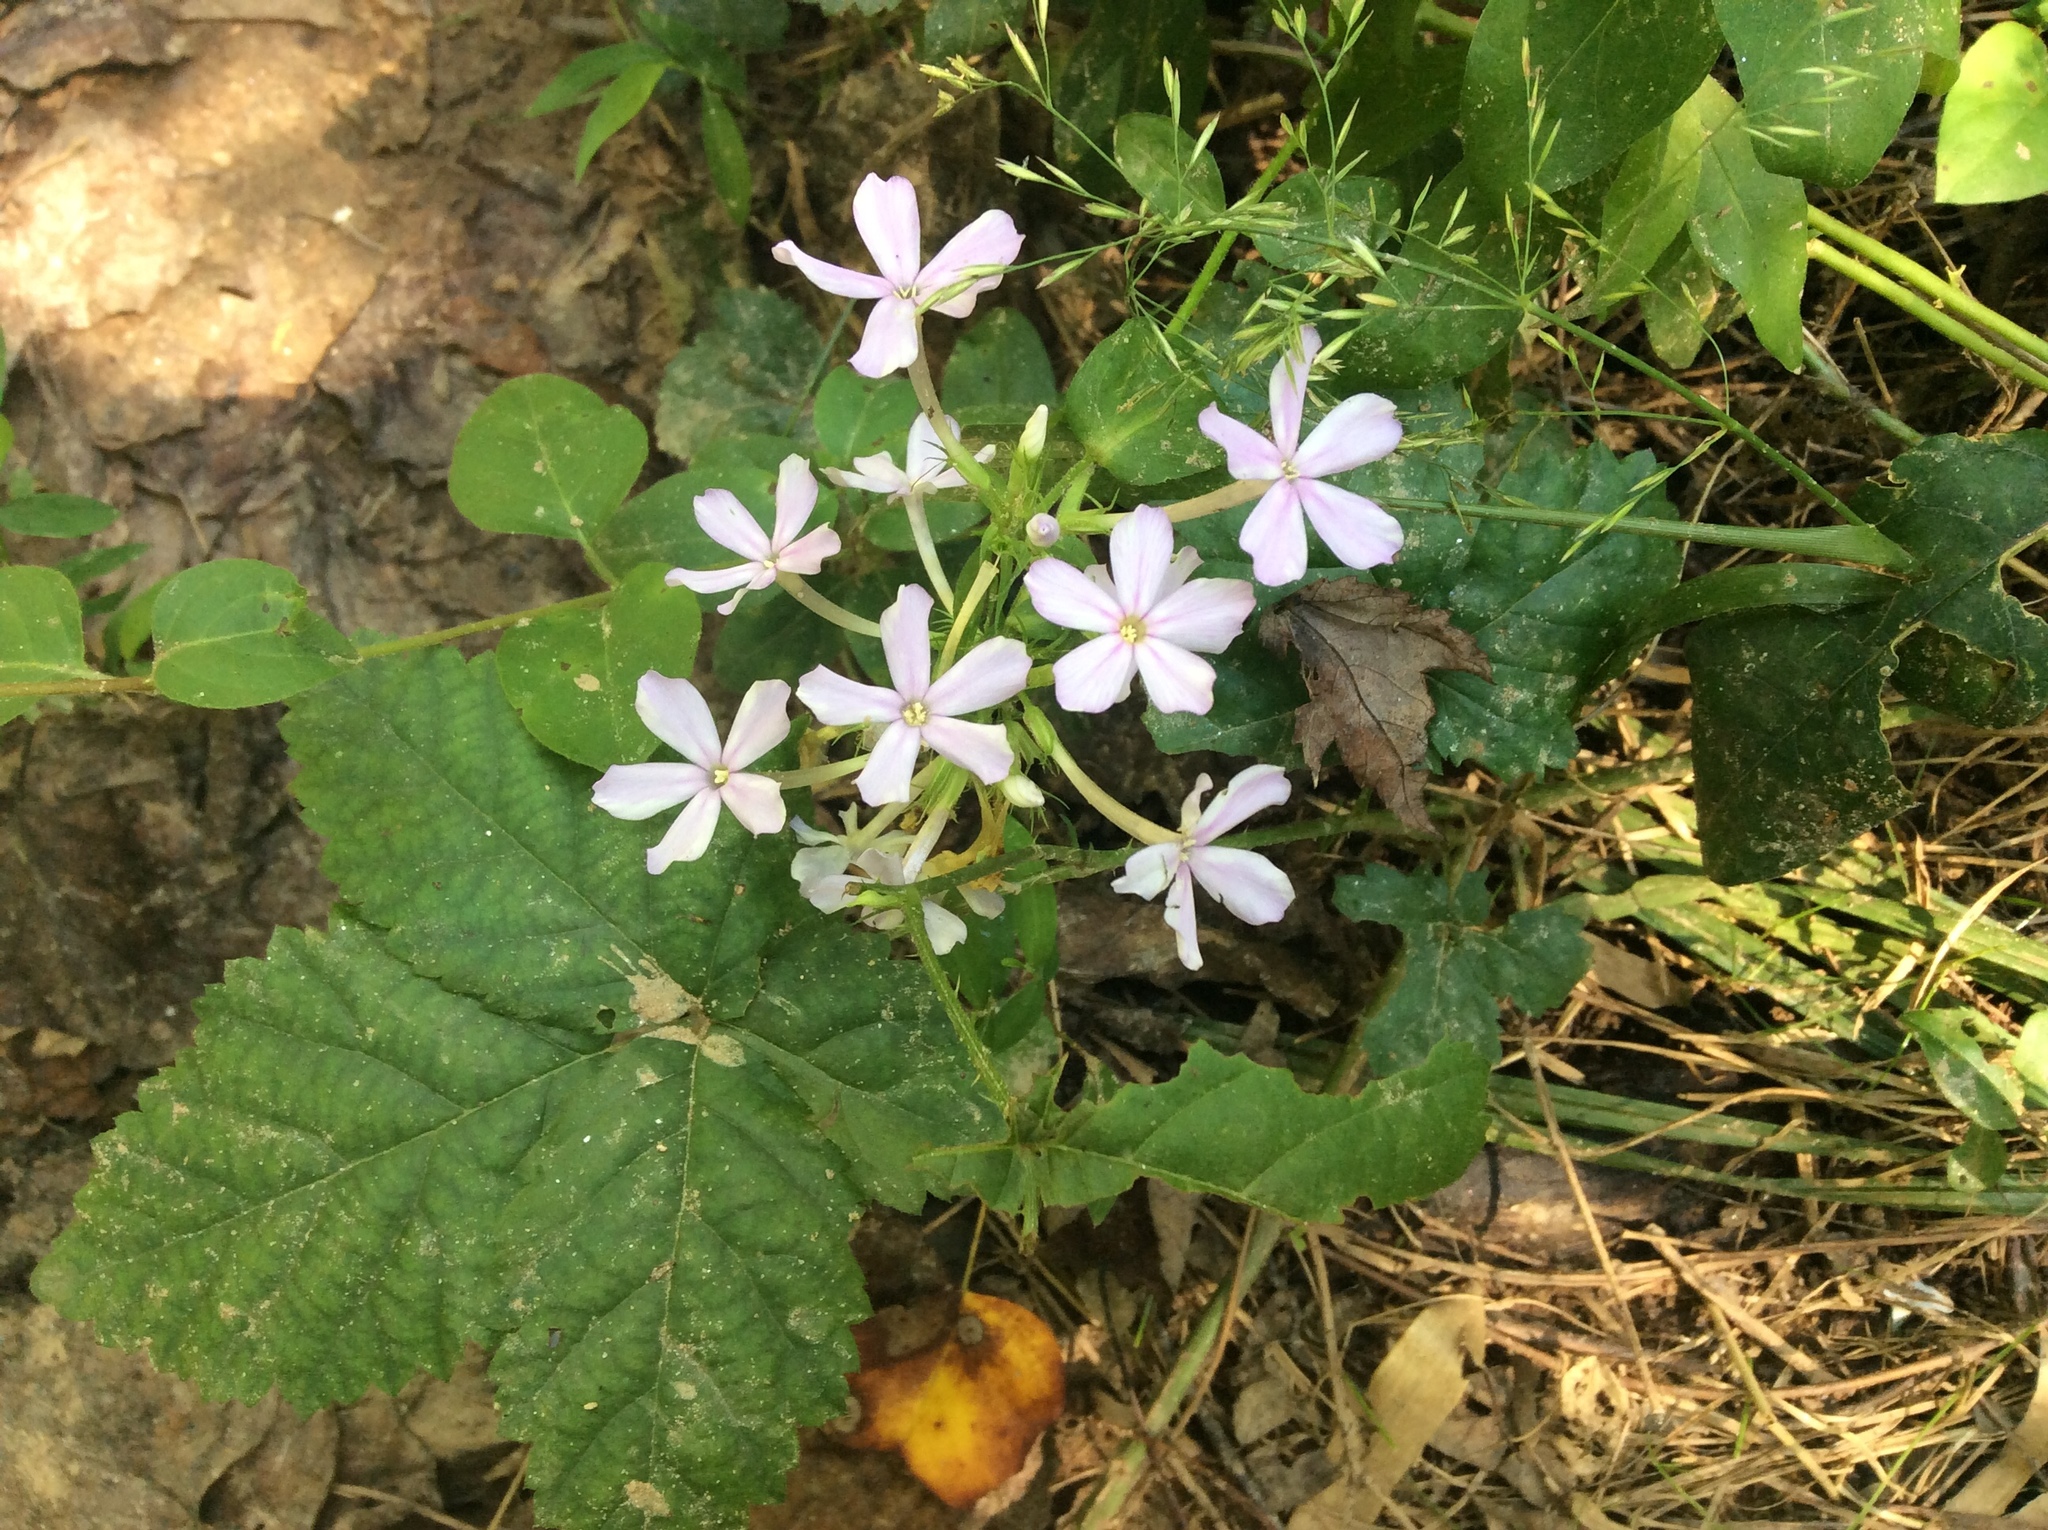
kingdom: Plantae
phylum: Tracheophyta
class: Magnoliopsida
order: Ericales
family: Polemoniaceae
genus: Phlox
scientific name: Phlox paniculata
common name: Fall phlox
